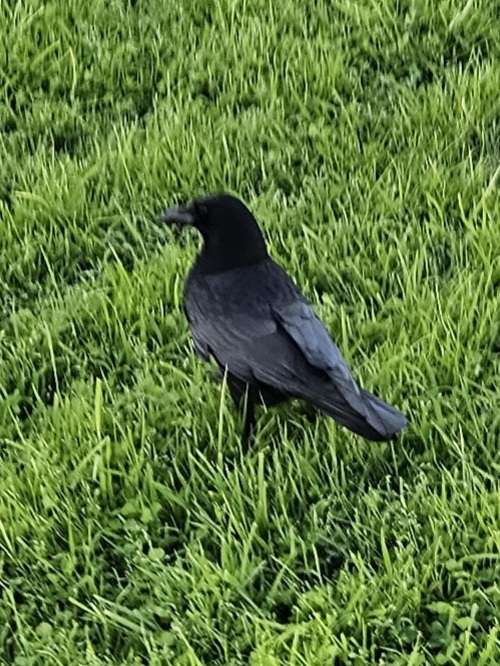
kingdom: Animalia
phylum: Chordata
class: Aves
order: Passeriformes
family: Corvidae
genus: Corvus
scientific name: Corvus brachyrhynchos
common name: American crow
